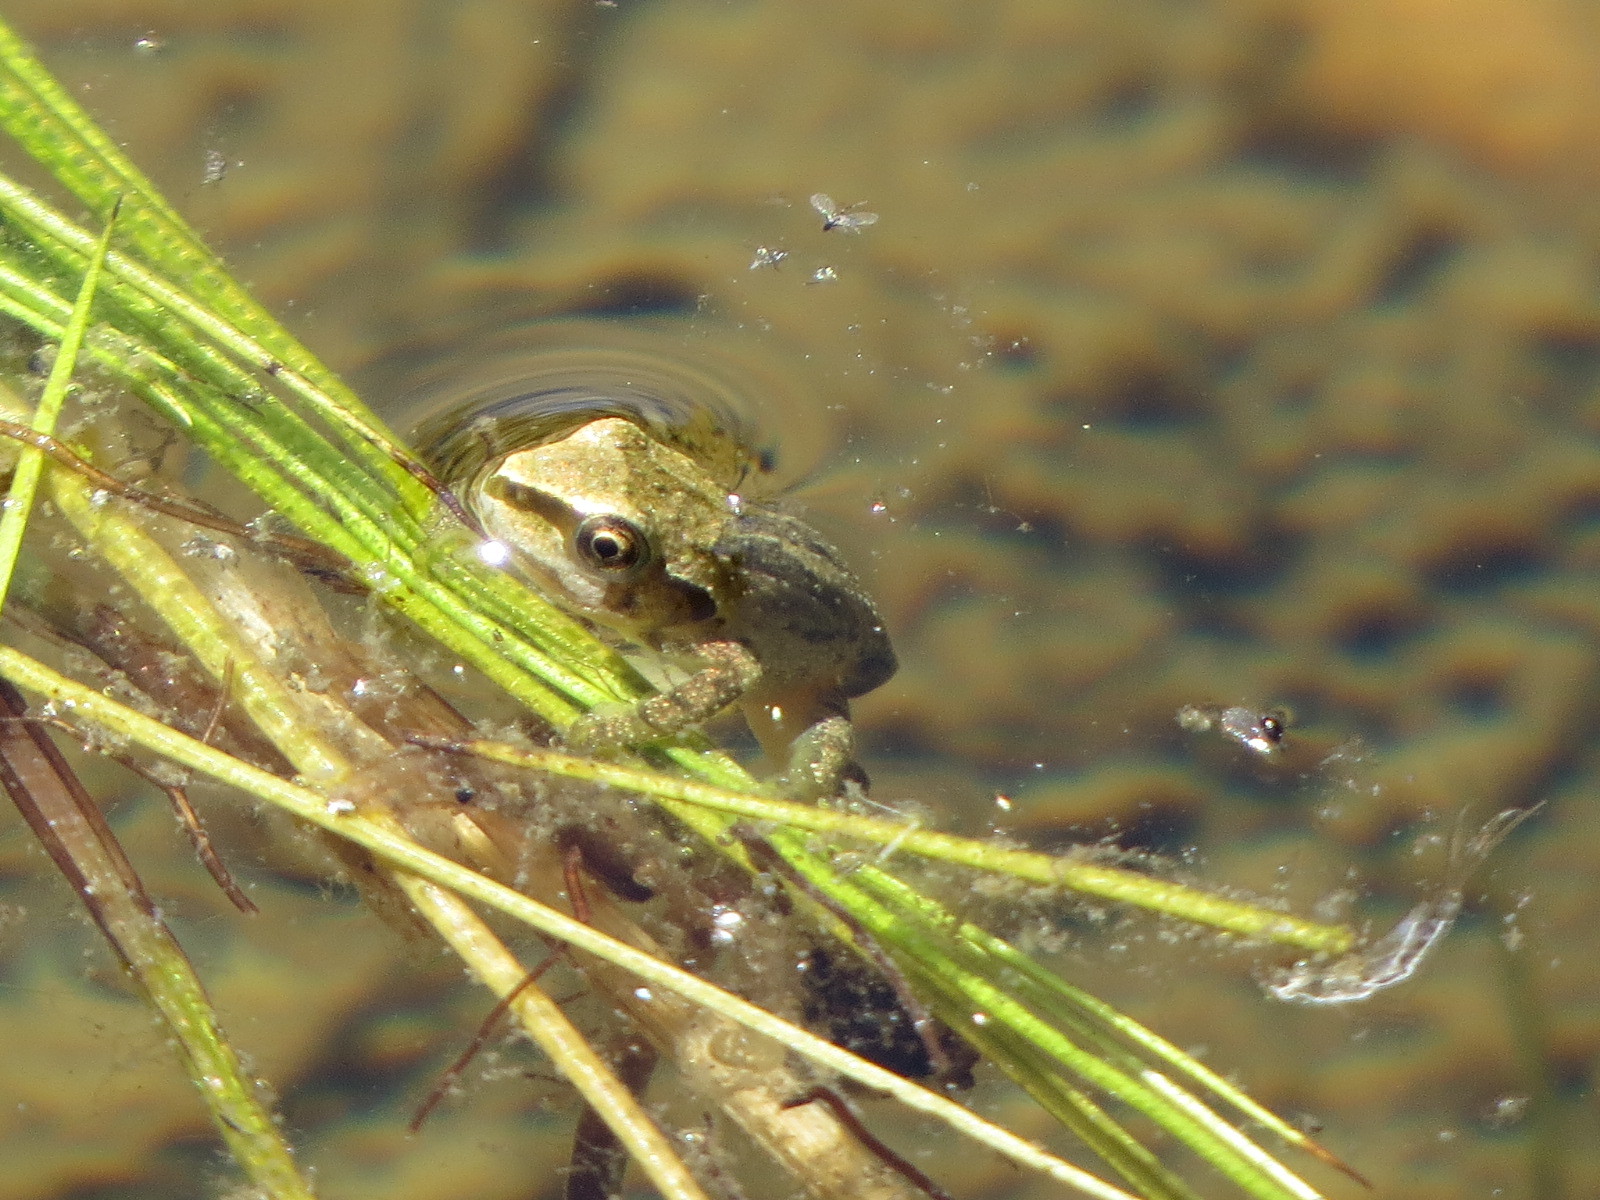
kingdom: Animalia
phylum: Chordata
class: Amphibia
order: Anura
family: Hylidae
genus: Pseudacris
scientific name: Pseudacris regilla
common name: Pacific chorus frog
